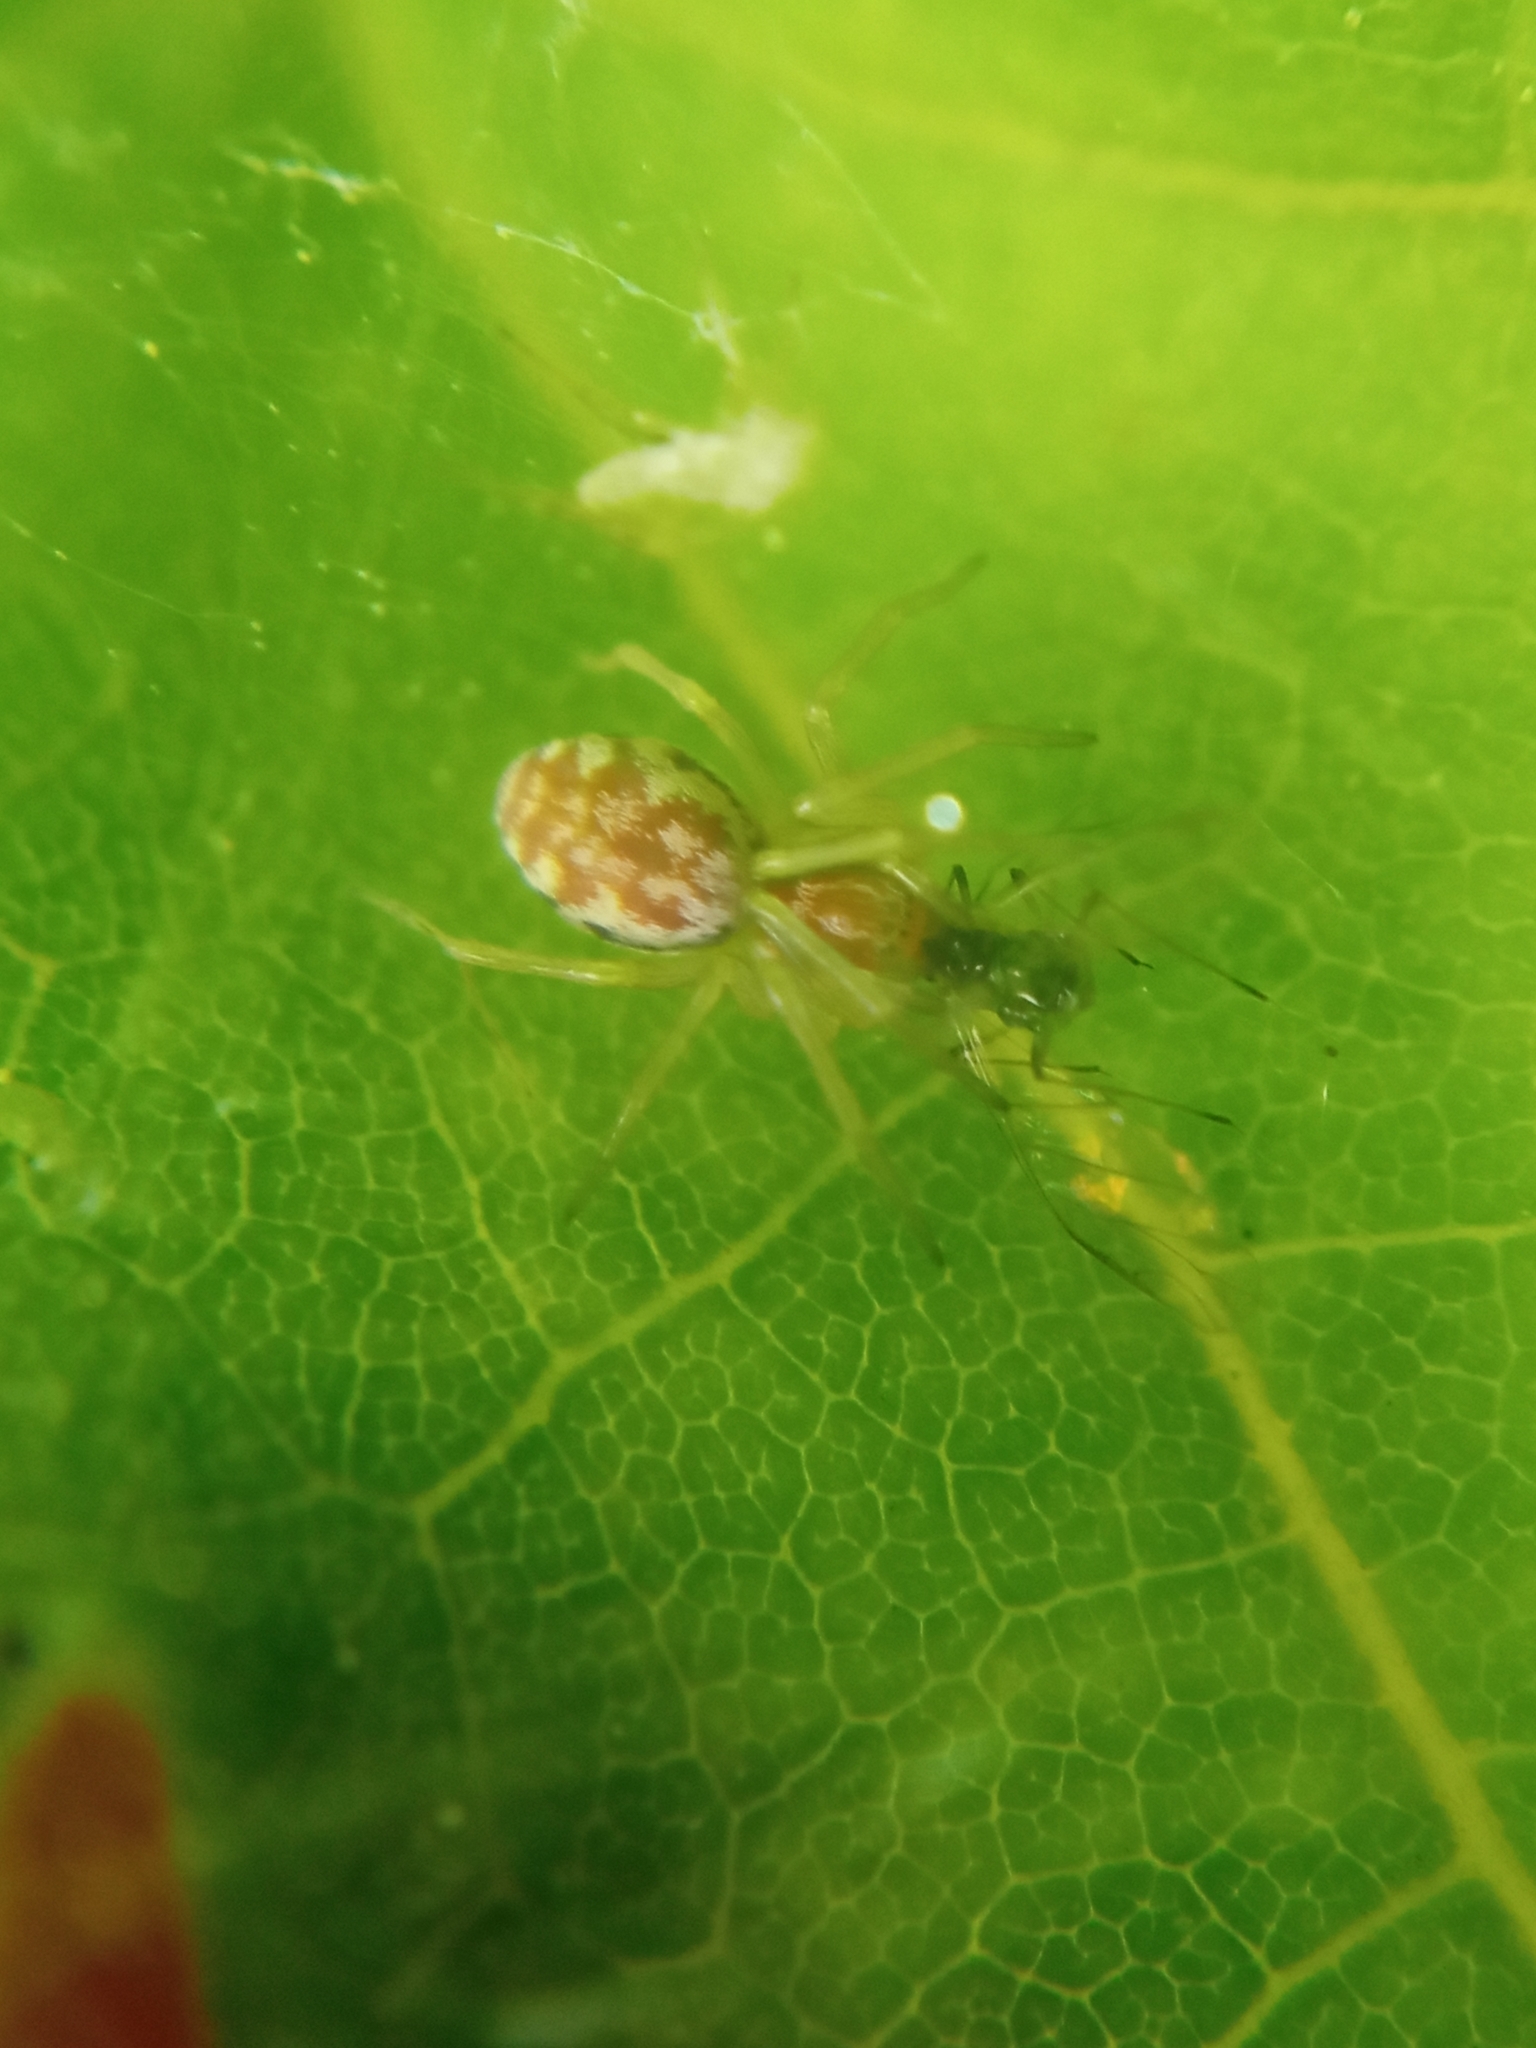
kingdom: Animalia
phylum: Arthropoda
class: Arachnida
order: Araneae
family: Dictynidae
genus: Nigma
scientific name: Nigma flavescens
